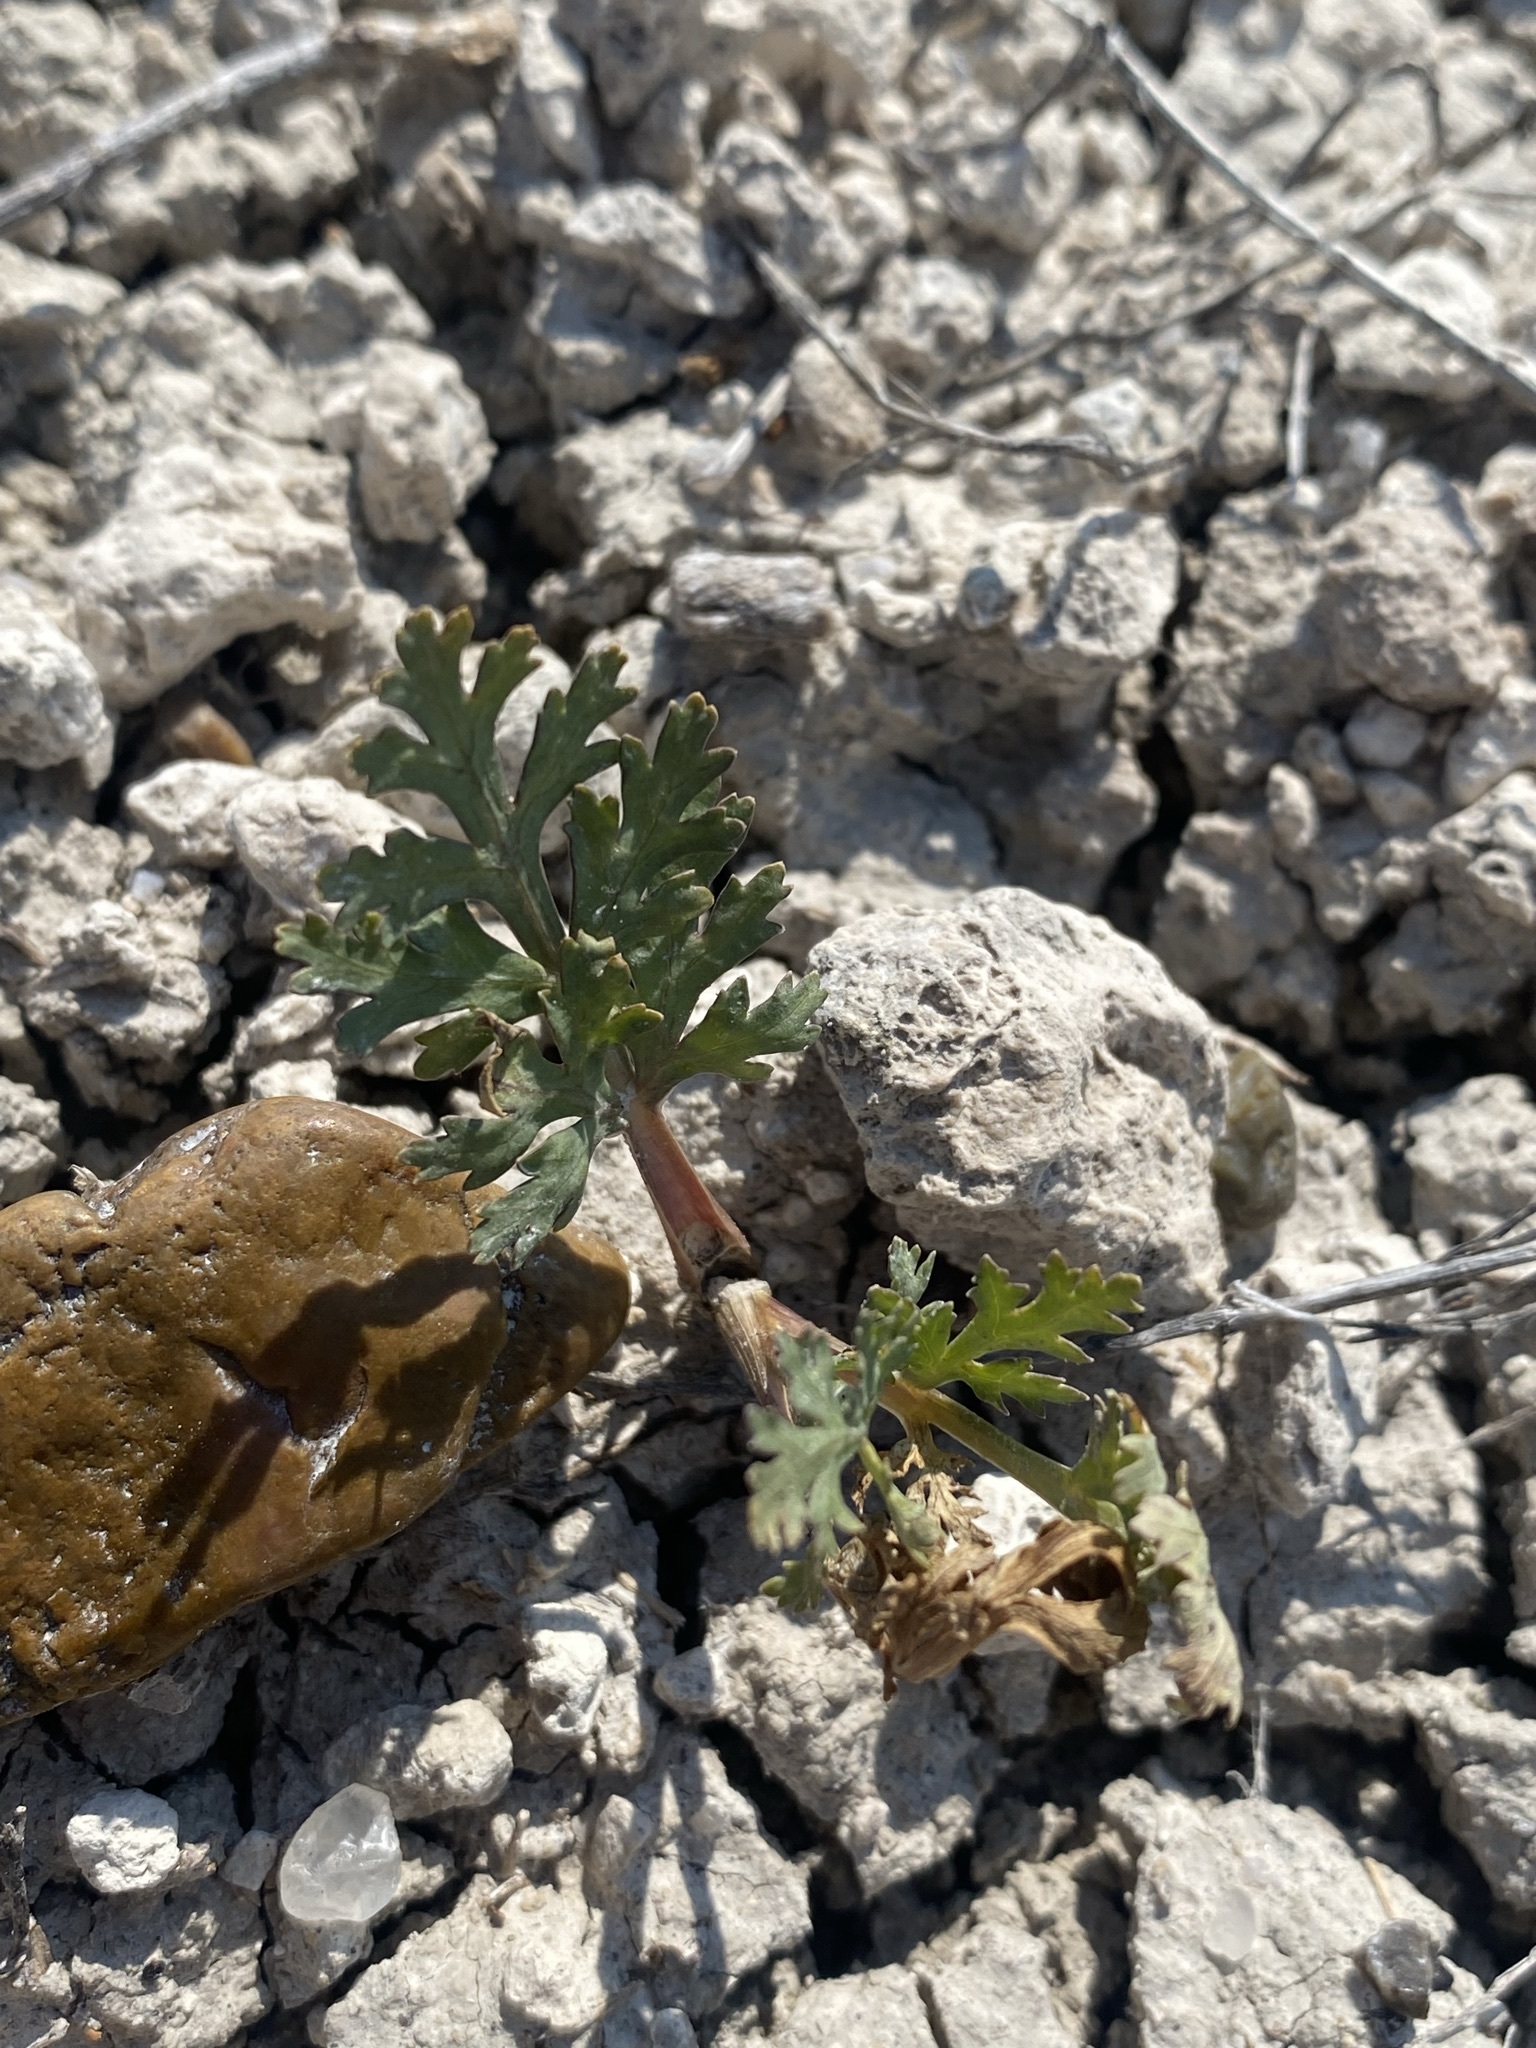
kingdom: Plantae
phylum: Tracheophyta
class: Magnoliopsida
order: Apiales
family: Apiaceae
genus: Musineon
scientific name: Musineon divaricatum
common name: Plains musineon
